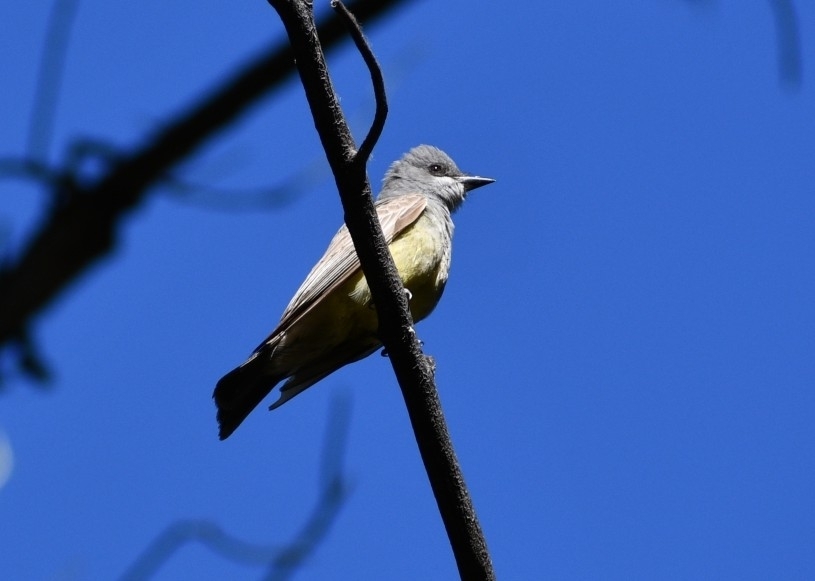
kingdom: Animalia
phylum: Chordata
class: Aves
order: Passeriformes
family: Tyrannidae
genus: Tyrannus
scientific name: Tyrannus vociferans
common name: Cassin's kingbird
